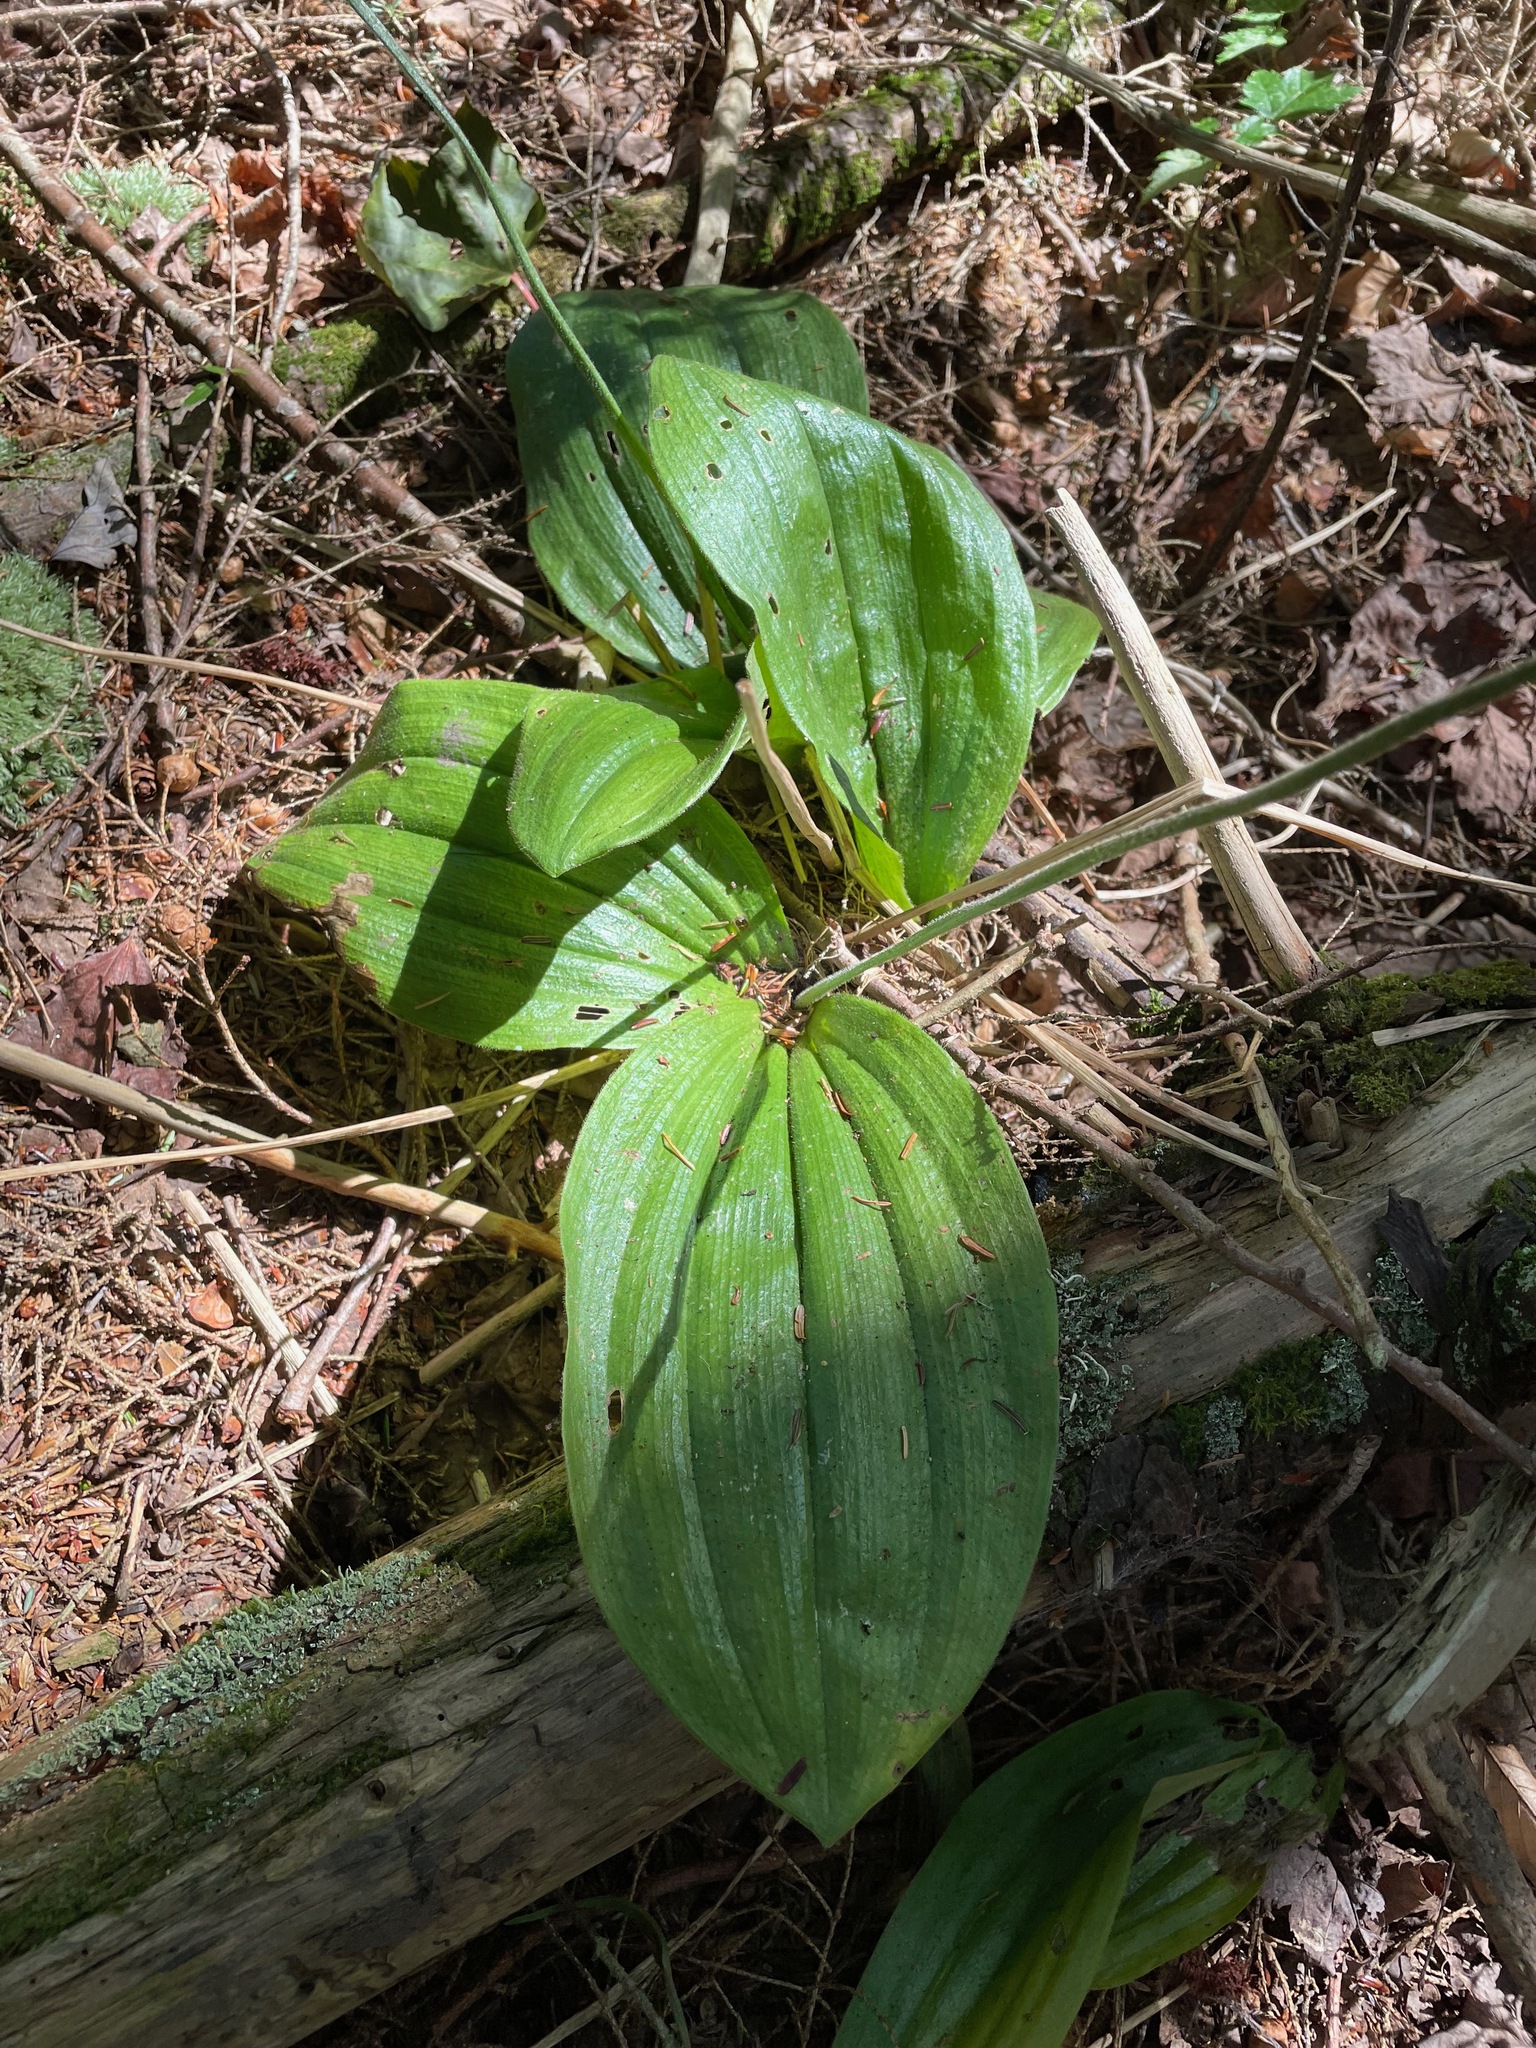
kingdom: Plantae
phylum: Tracheophyta
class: Liliopsida
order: Asparagales
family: Orchidaceae
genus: Cypripedium
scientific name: Cypripedium acaule
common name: Pink lady's-slipper
